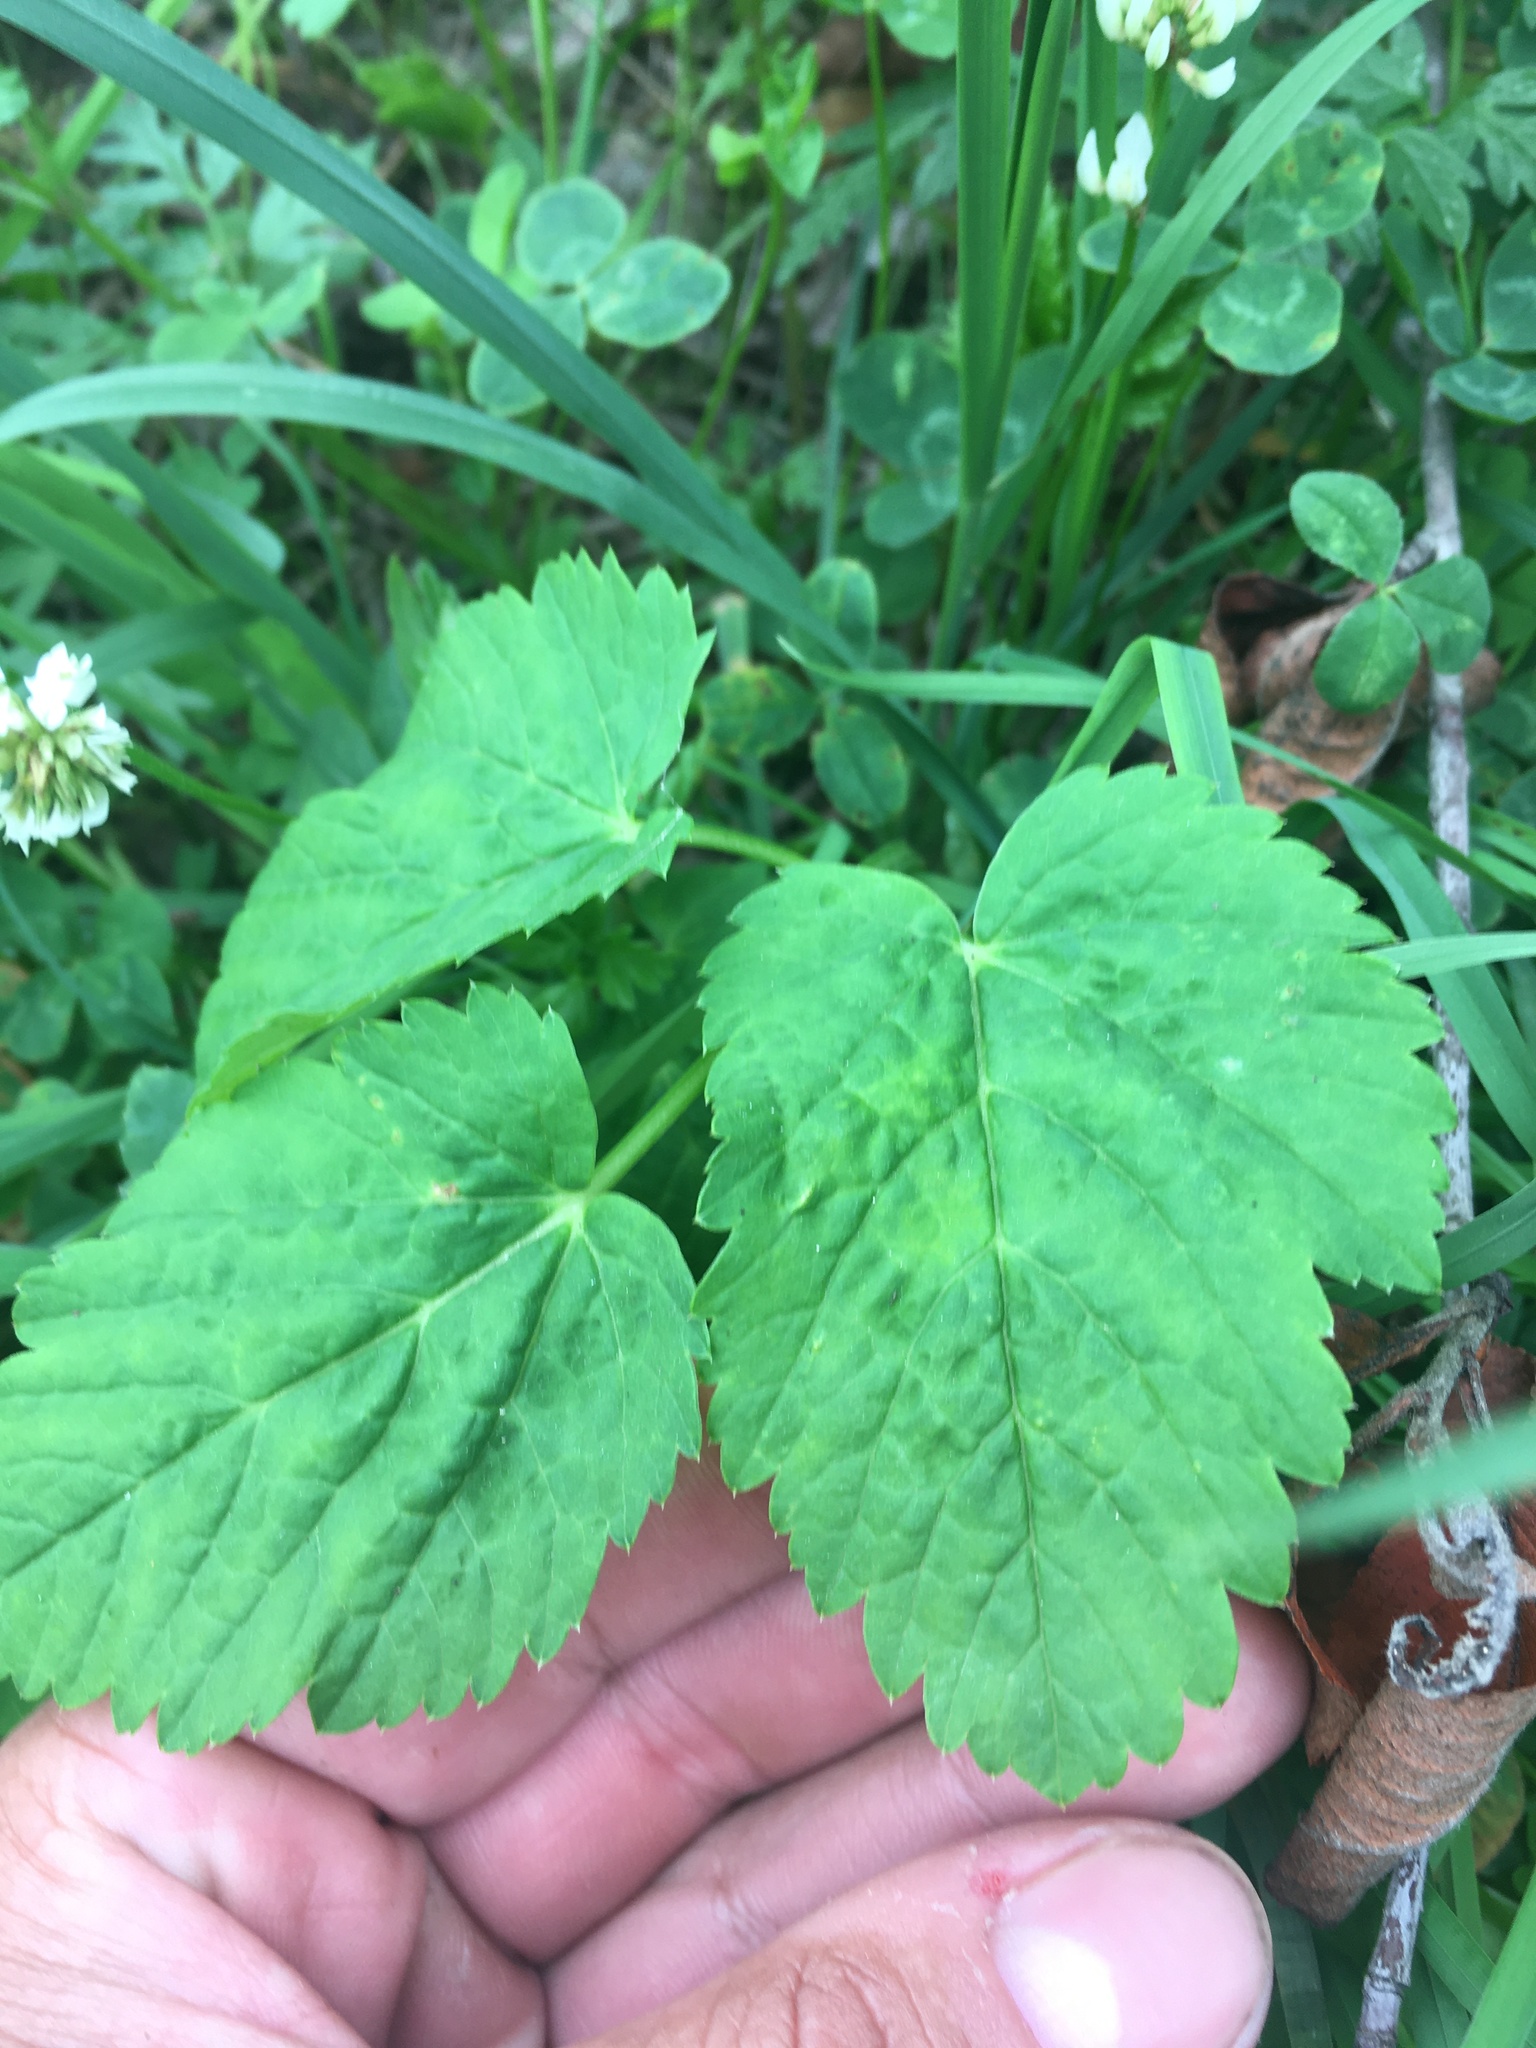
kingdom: Plantae
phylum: Tracheophyta
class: Magnoliopsida
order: Apiales
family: Apiaceae
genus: Aegopodium
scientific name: Aegopodium podagraria
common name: Ground-elder
